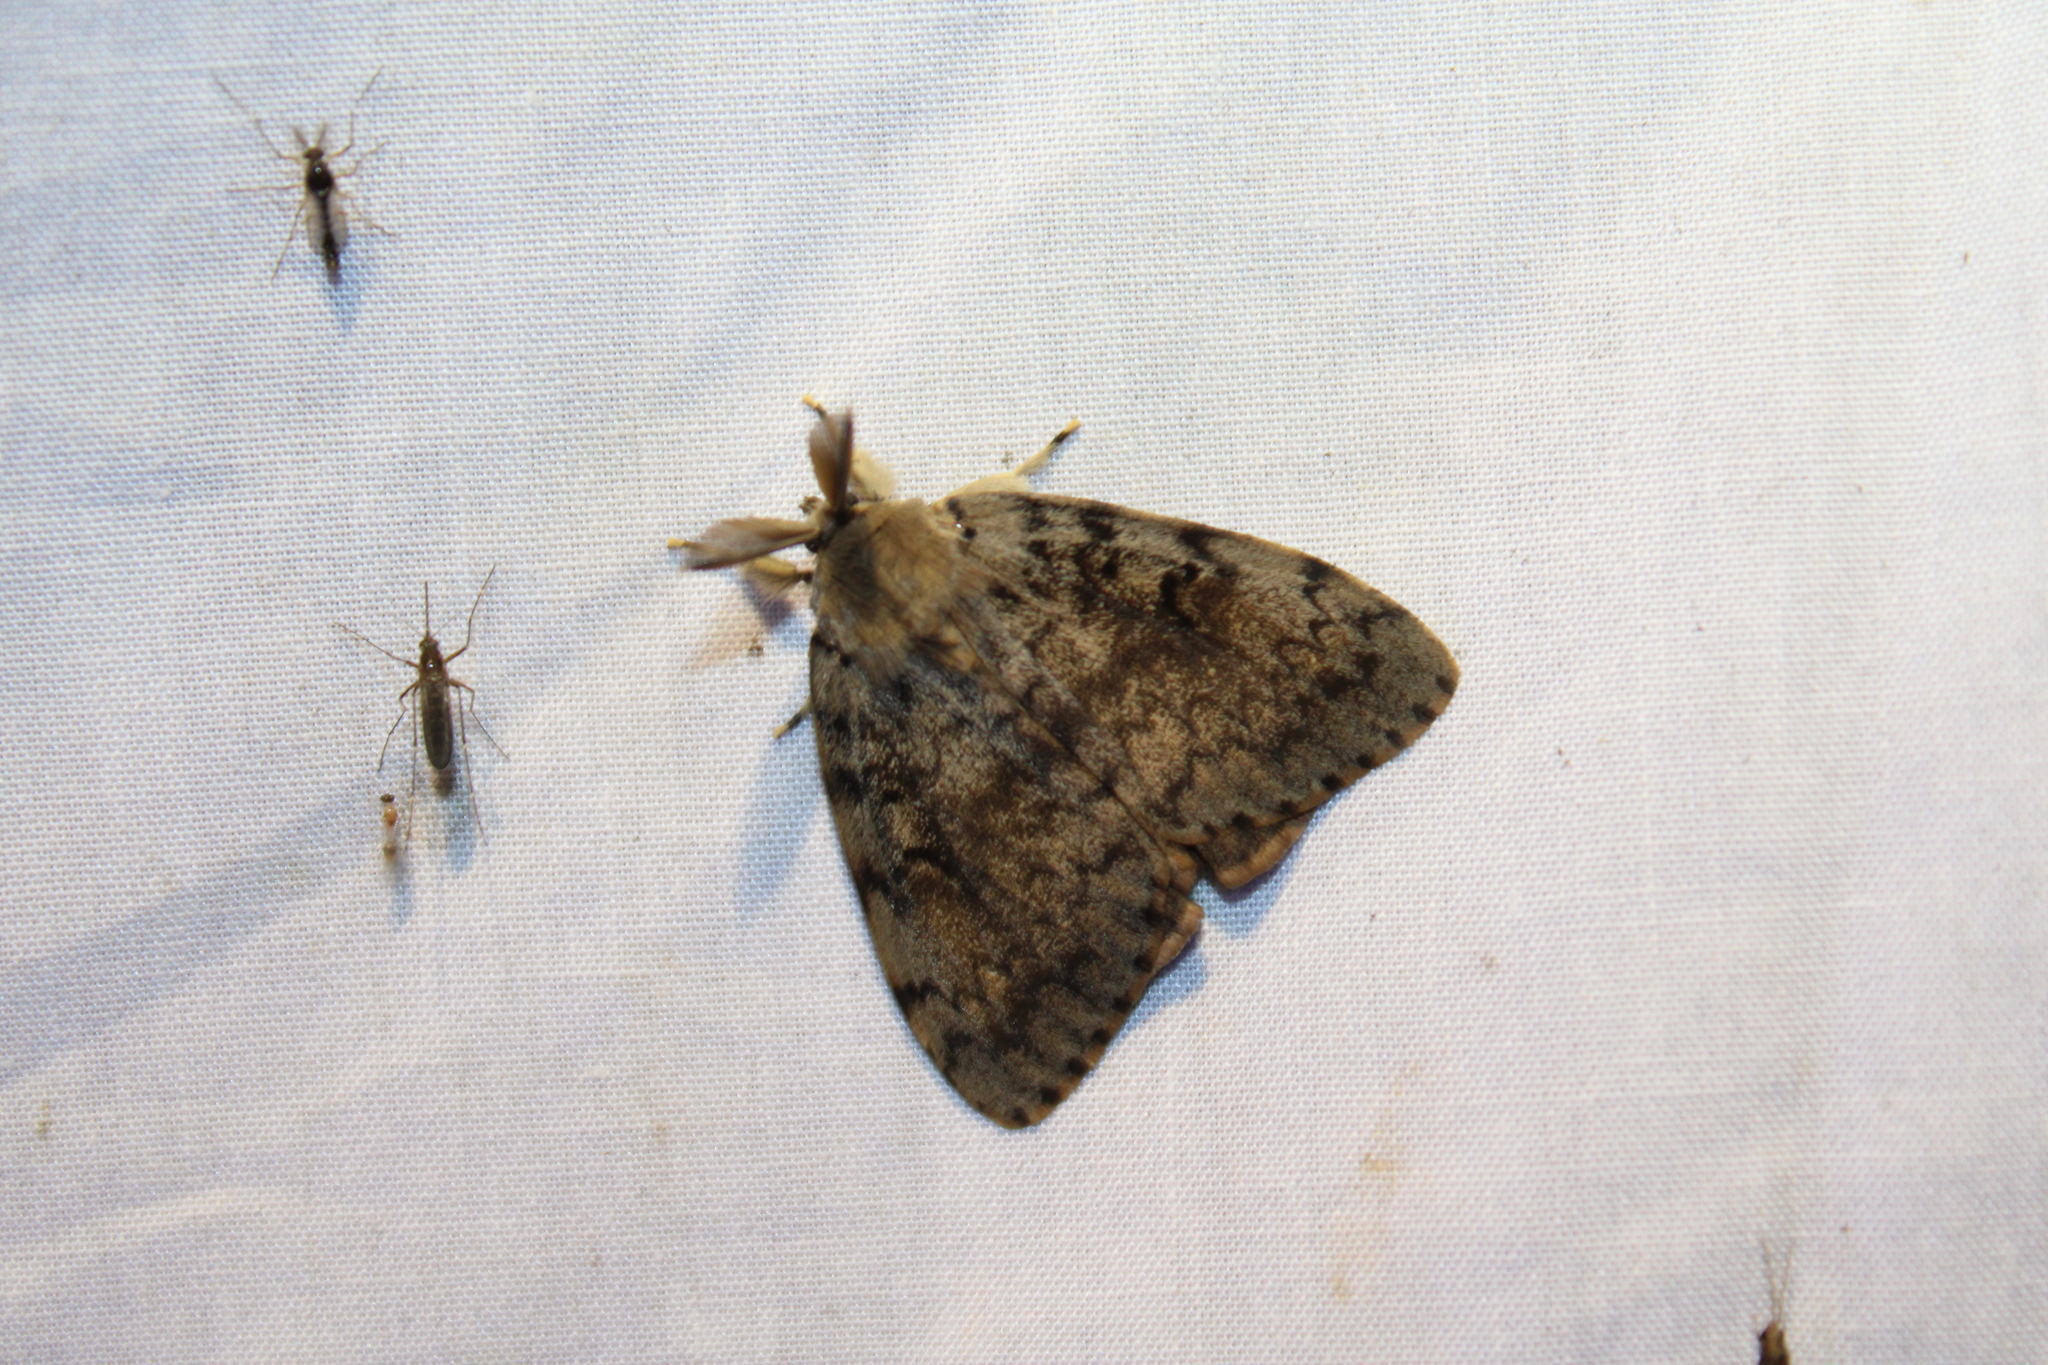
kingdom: Animalia
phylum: Arthropoda
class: Insecta
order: Lepidoptera
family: Erebidae
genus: Lymantria
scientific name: Lymantria dispar
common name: Gypsy moth
